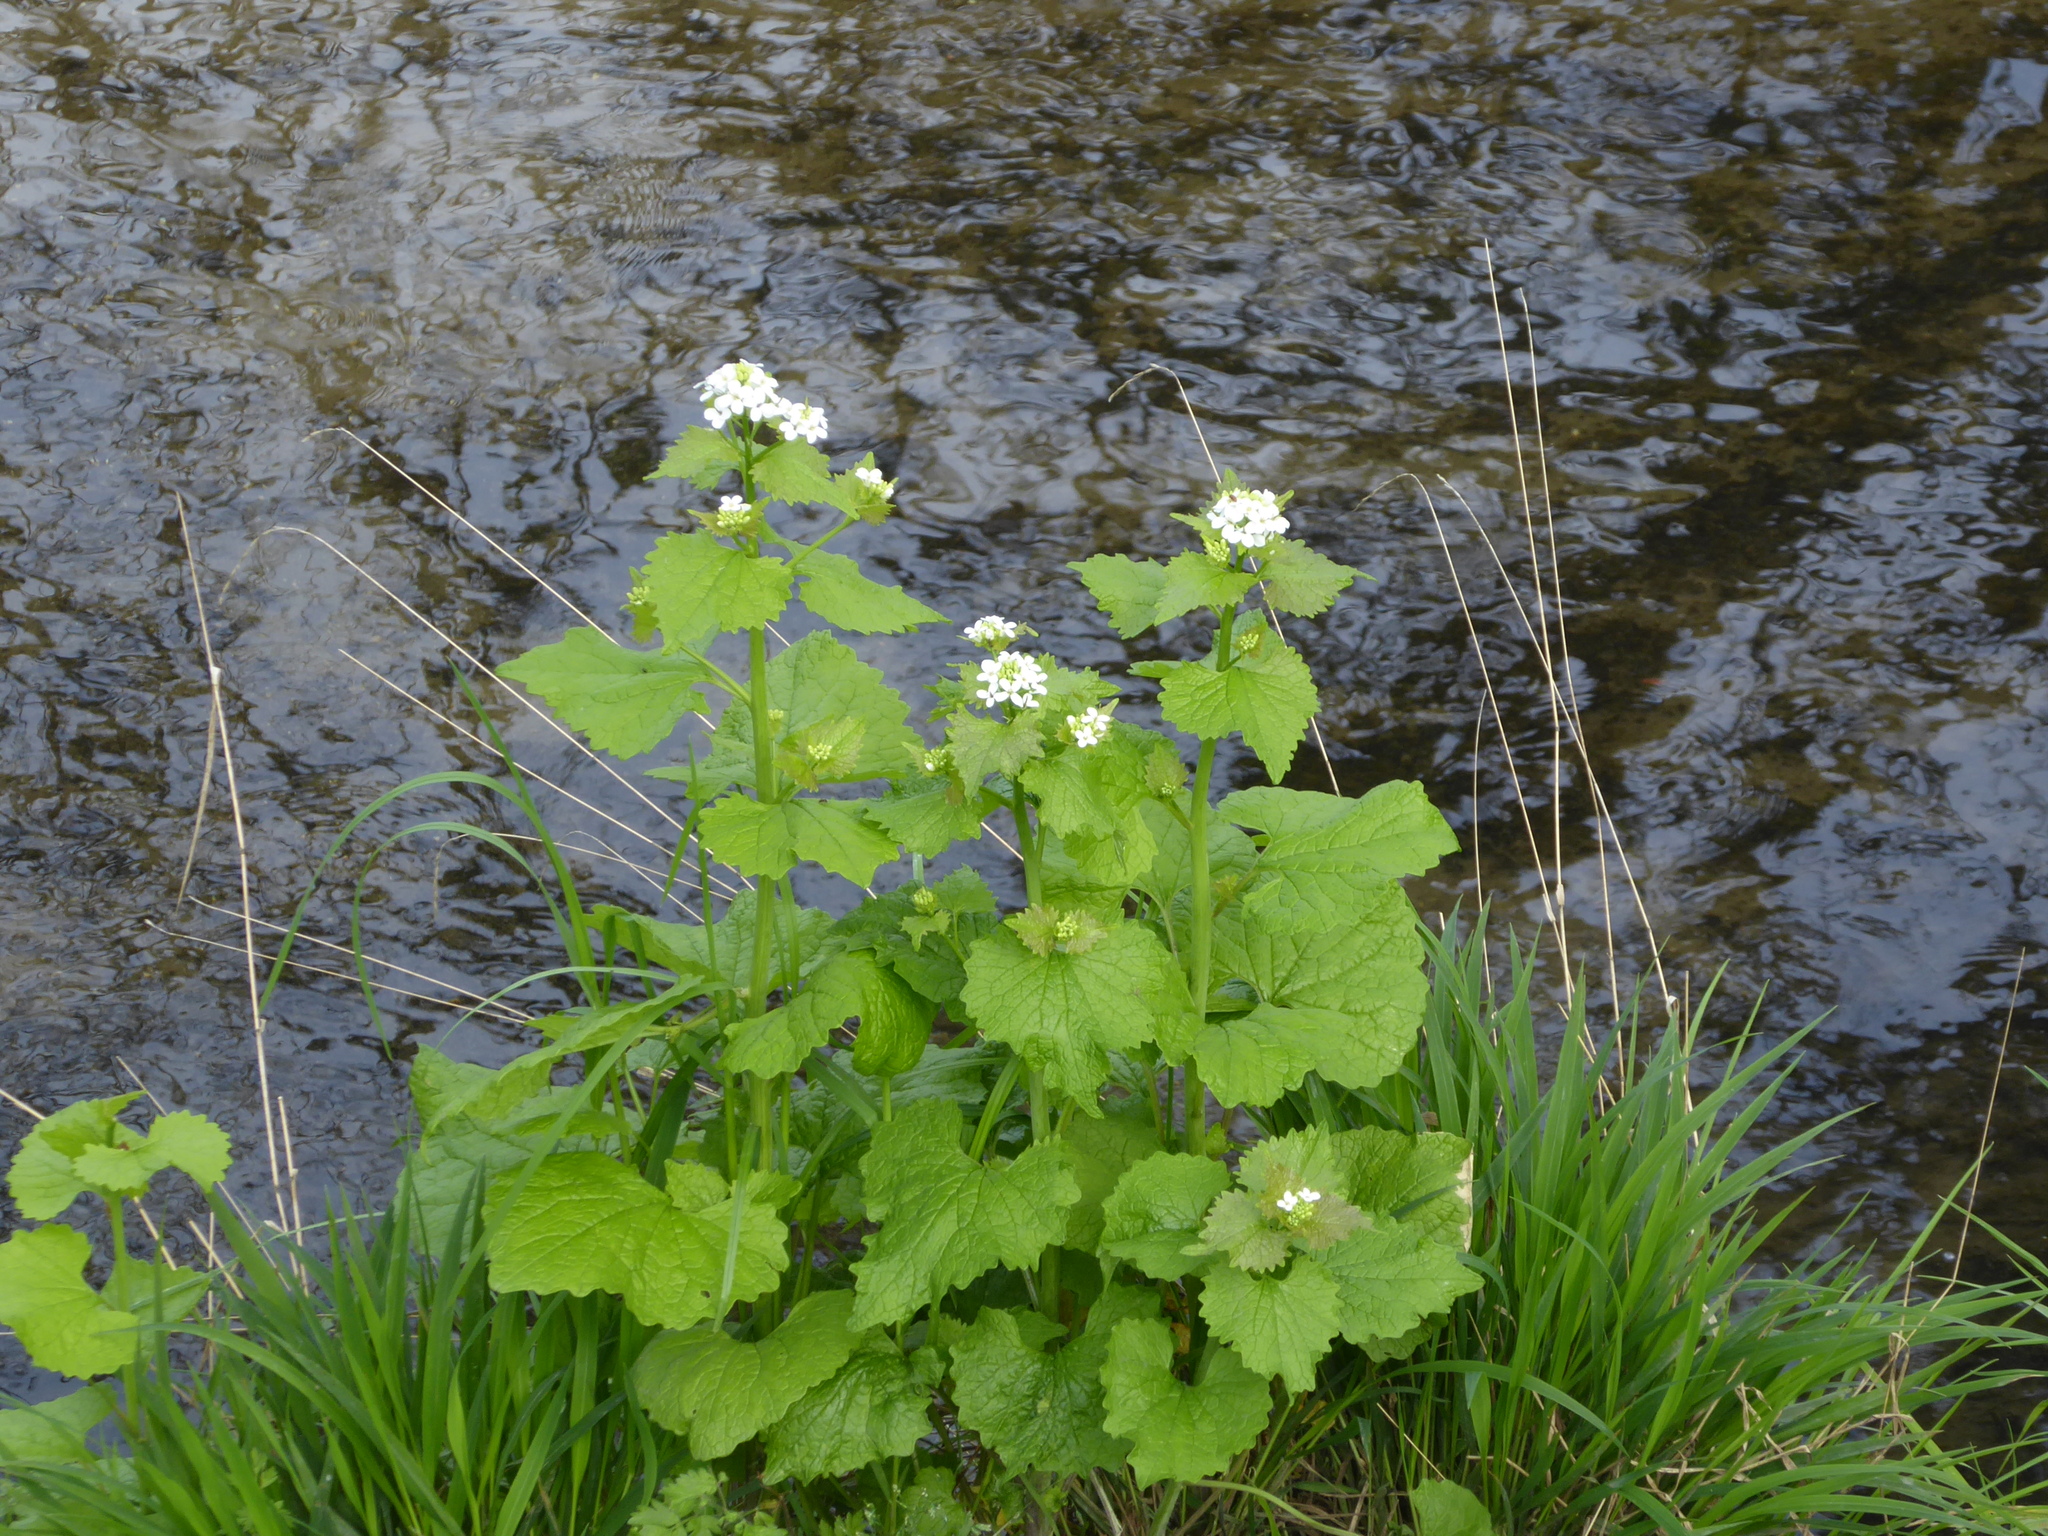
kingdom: Plantae
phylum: Tracheophyta
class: Magnoliopsida
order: Brassicales
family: Brassicaceae
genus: Alliaria
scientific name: Alliaria petiolata
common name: Garlic mustard
